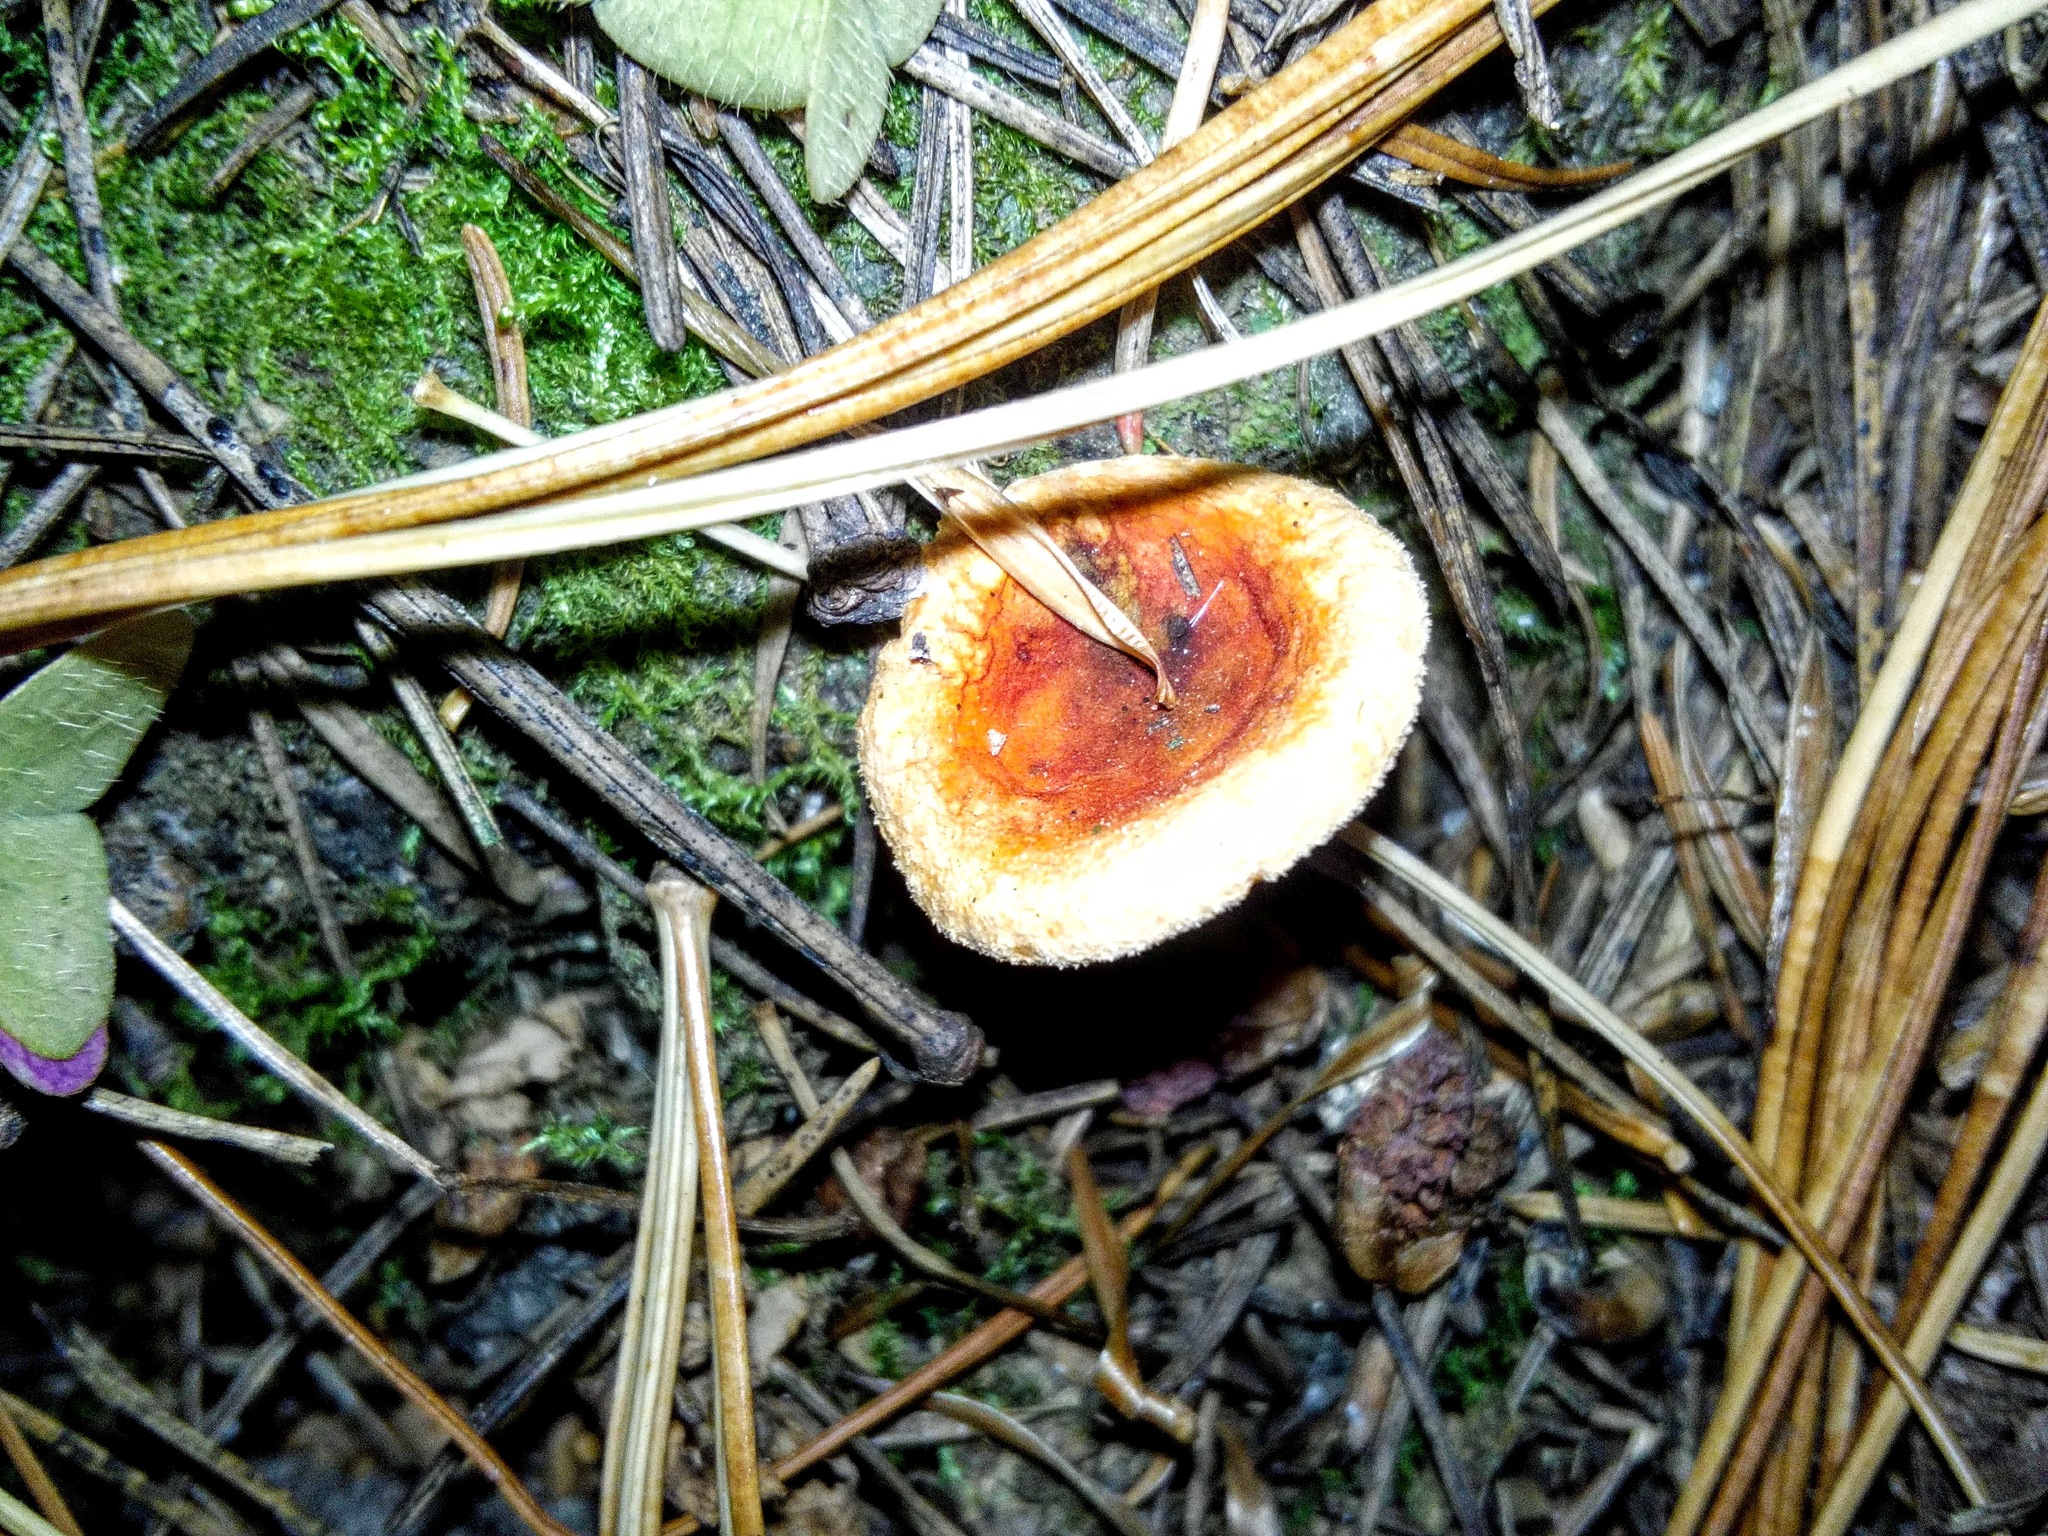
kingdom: Fungi
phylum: Basidiomycota
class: Agaricomycetes
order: Boletales
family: Hygrophoropsidaceae
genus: Hygrophoropsis
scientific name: Hygrophoropsis aurantiaca
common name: False chanterelle
